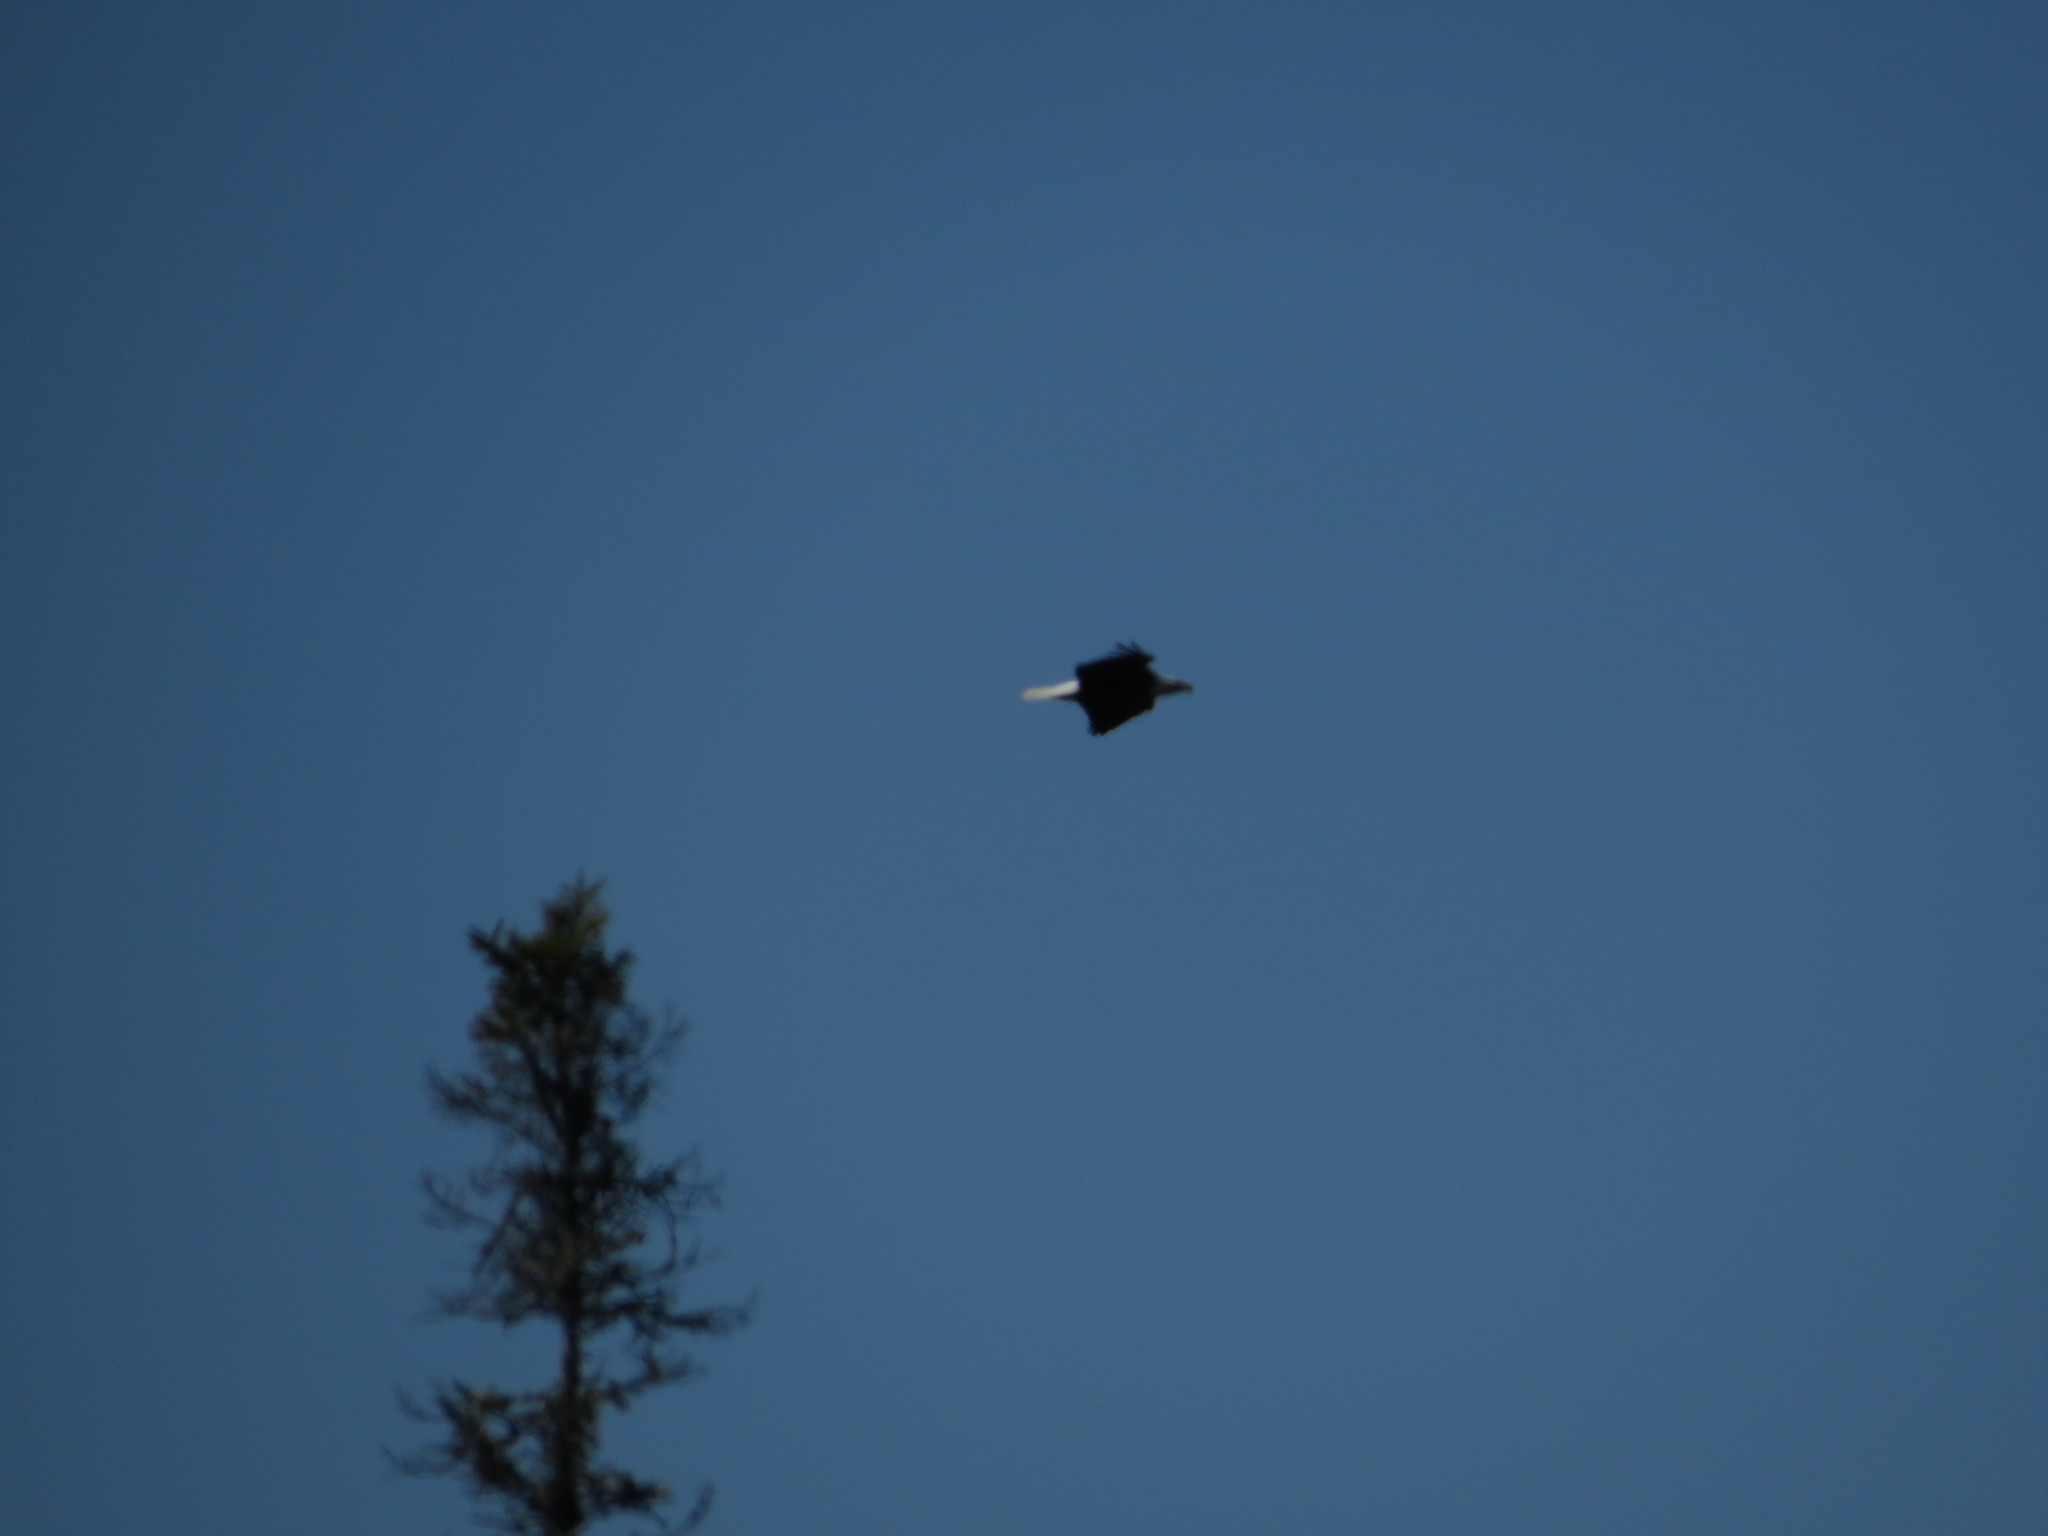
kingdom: Animalia
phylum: Chordata
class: Aves
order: Accipitriformes
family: Accipitridae
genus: Haliaeetus
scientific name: Haliaeetus leucocephalus
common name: Bald eagle
